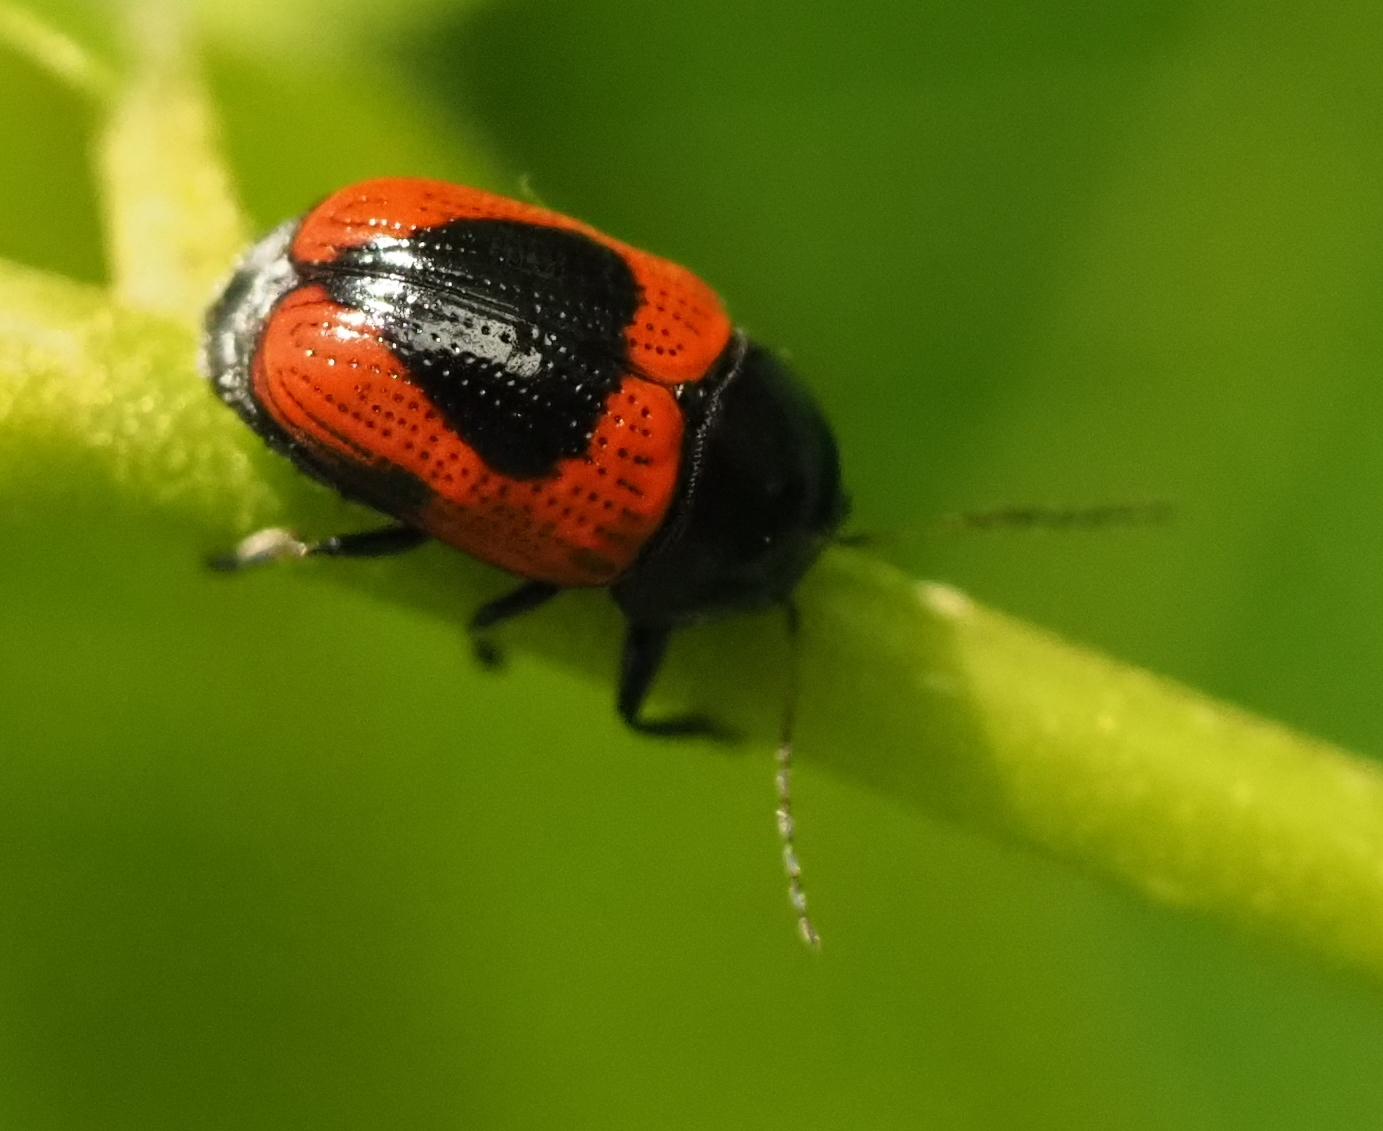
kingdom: Animalia
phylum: Arthropoda
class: Insecta
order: Coleoptera
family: Chrysomelidae
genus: Cryptocephalus
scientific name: Cryptocephalus notatus
